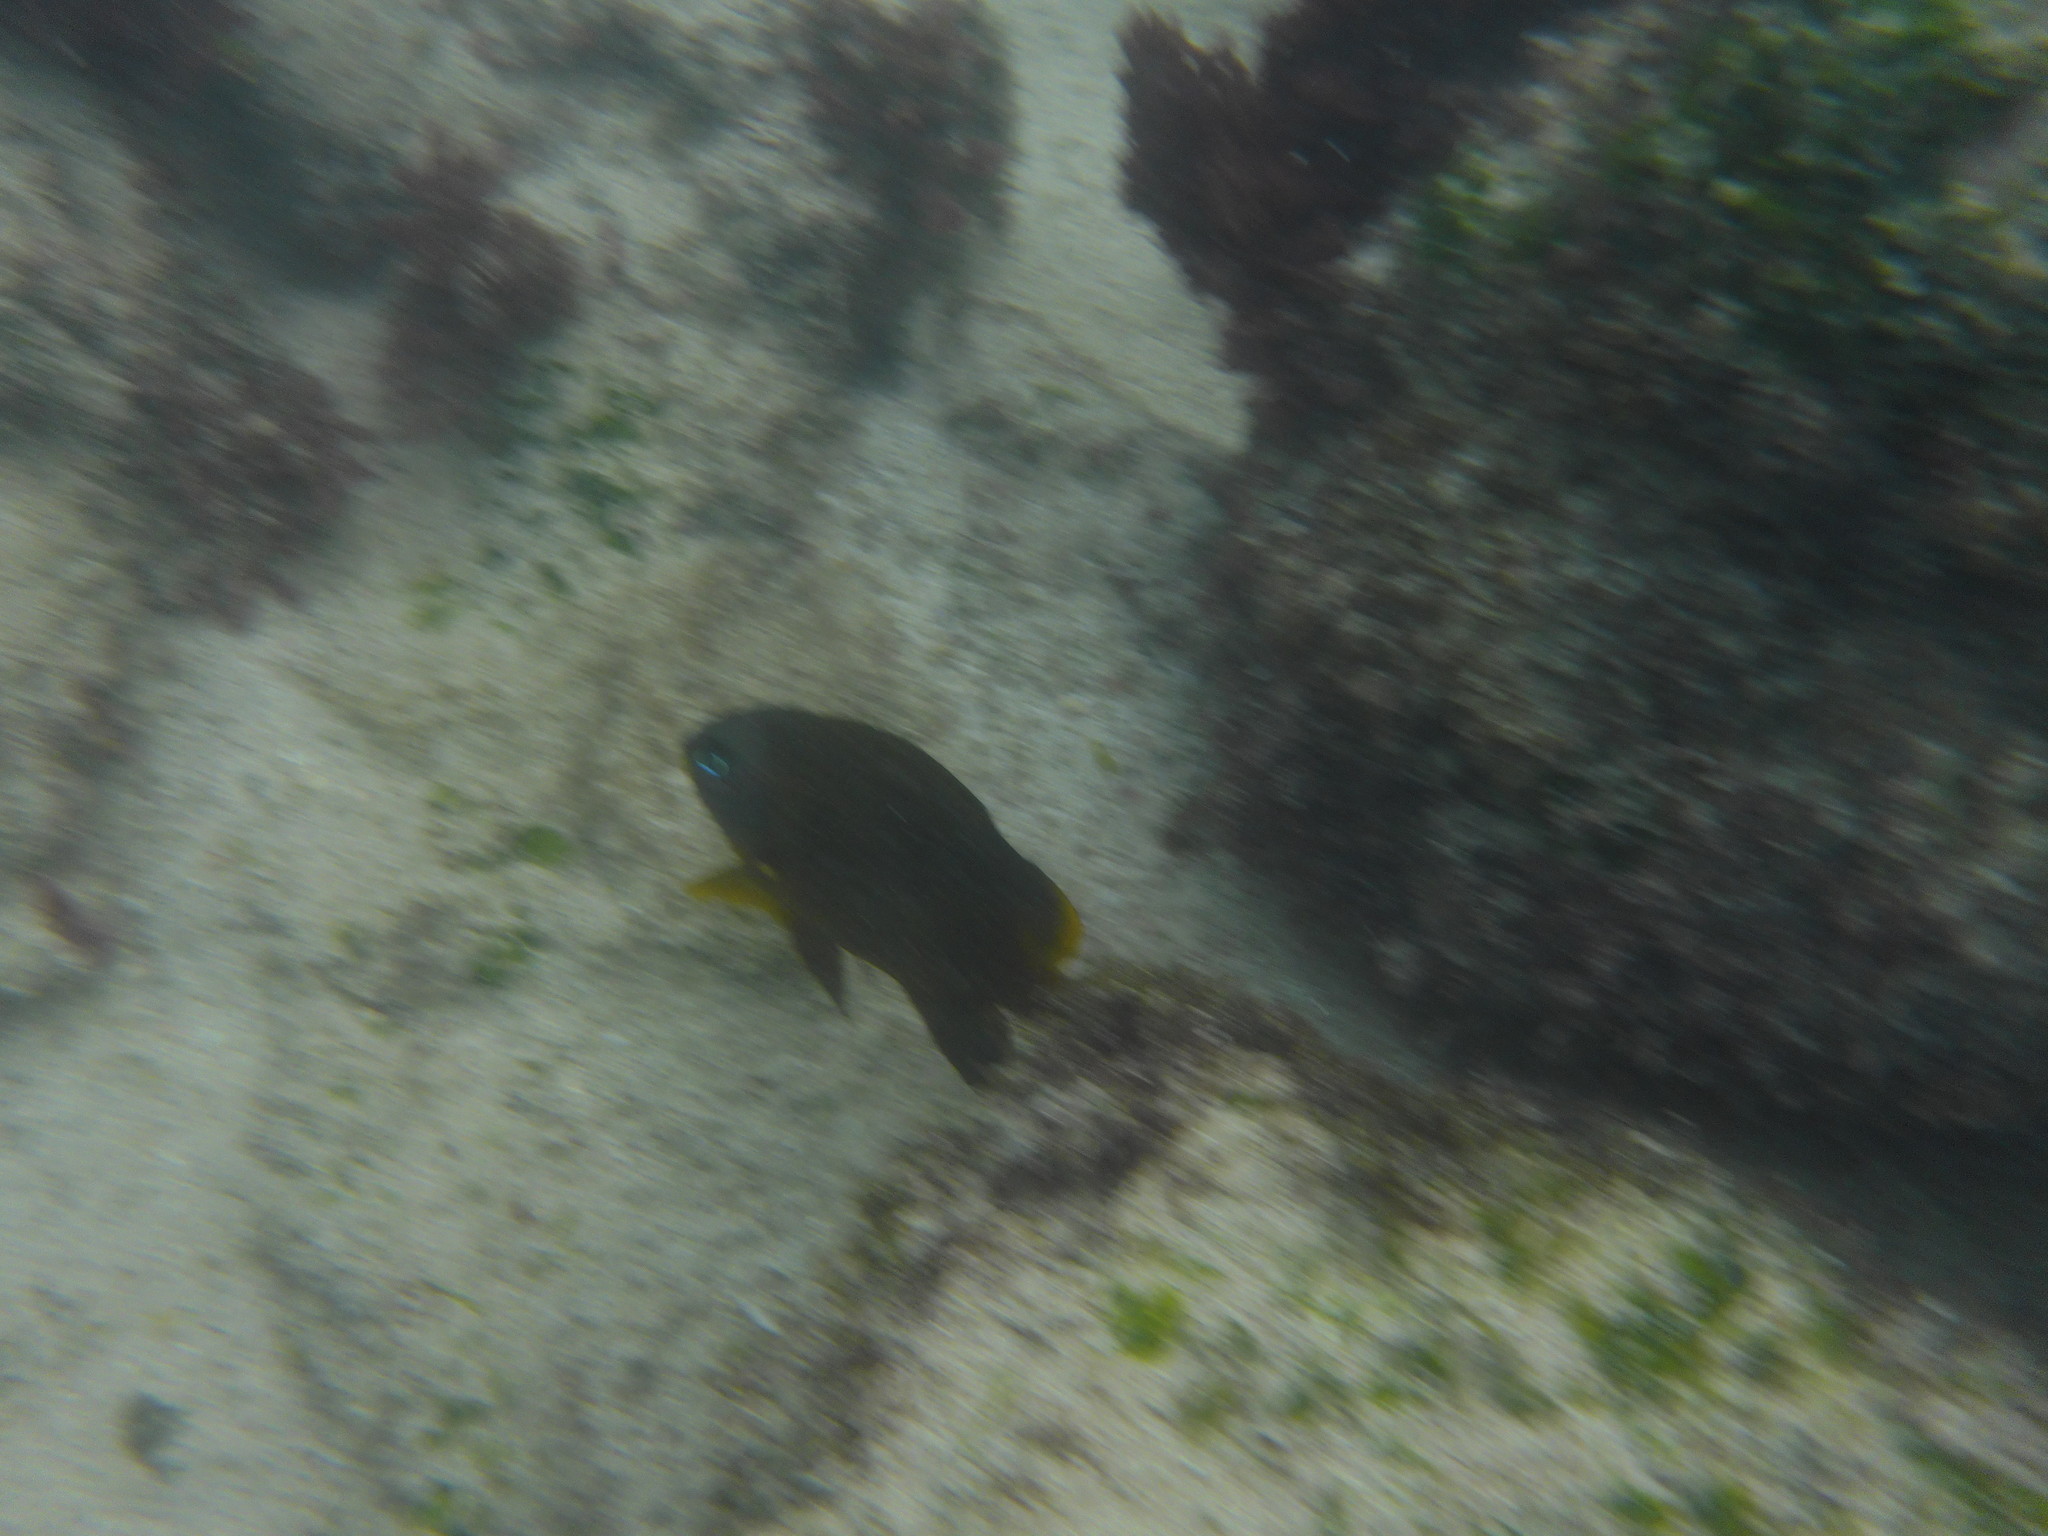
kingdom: Animalia
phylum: Chordata
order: Perciformes
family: Pomacentridae
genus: Stegastes
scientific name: Stegastes arcifrons
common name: Galapagos gregory
